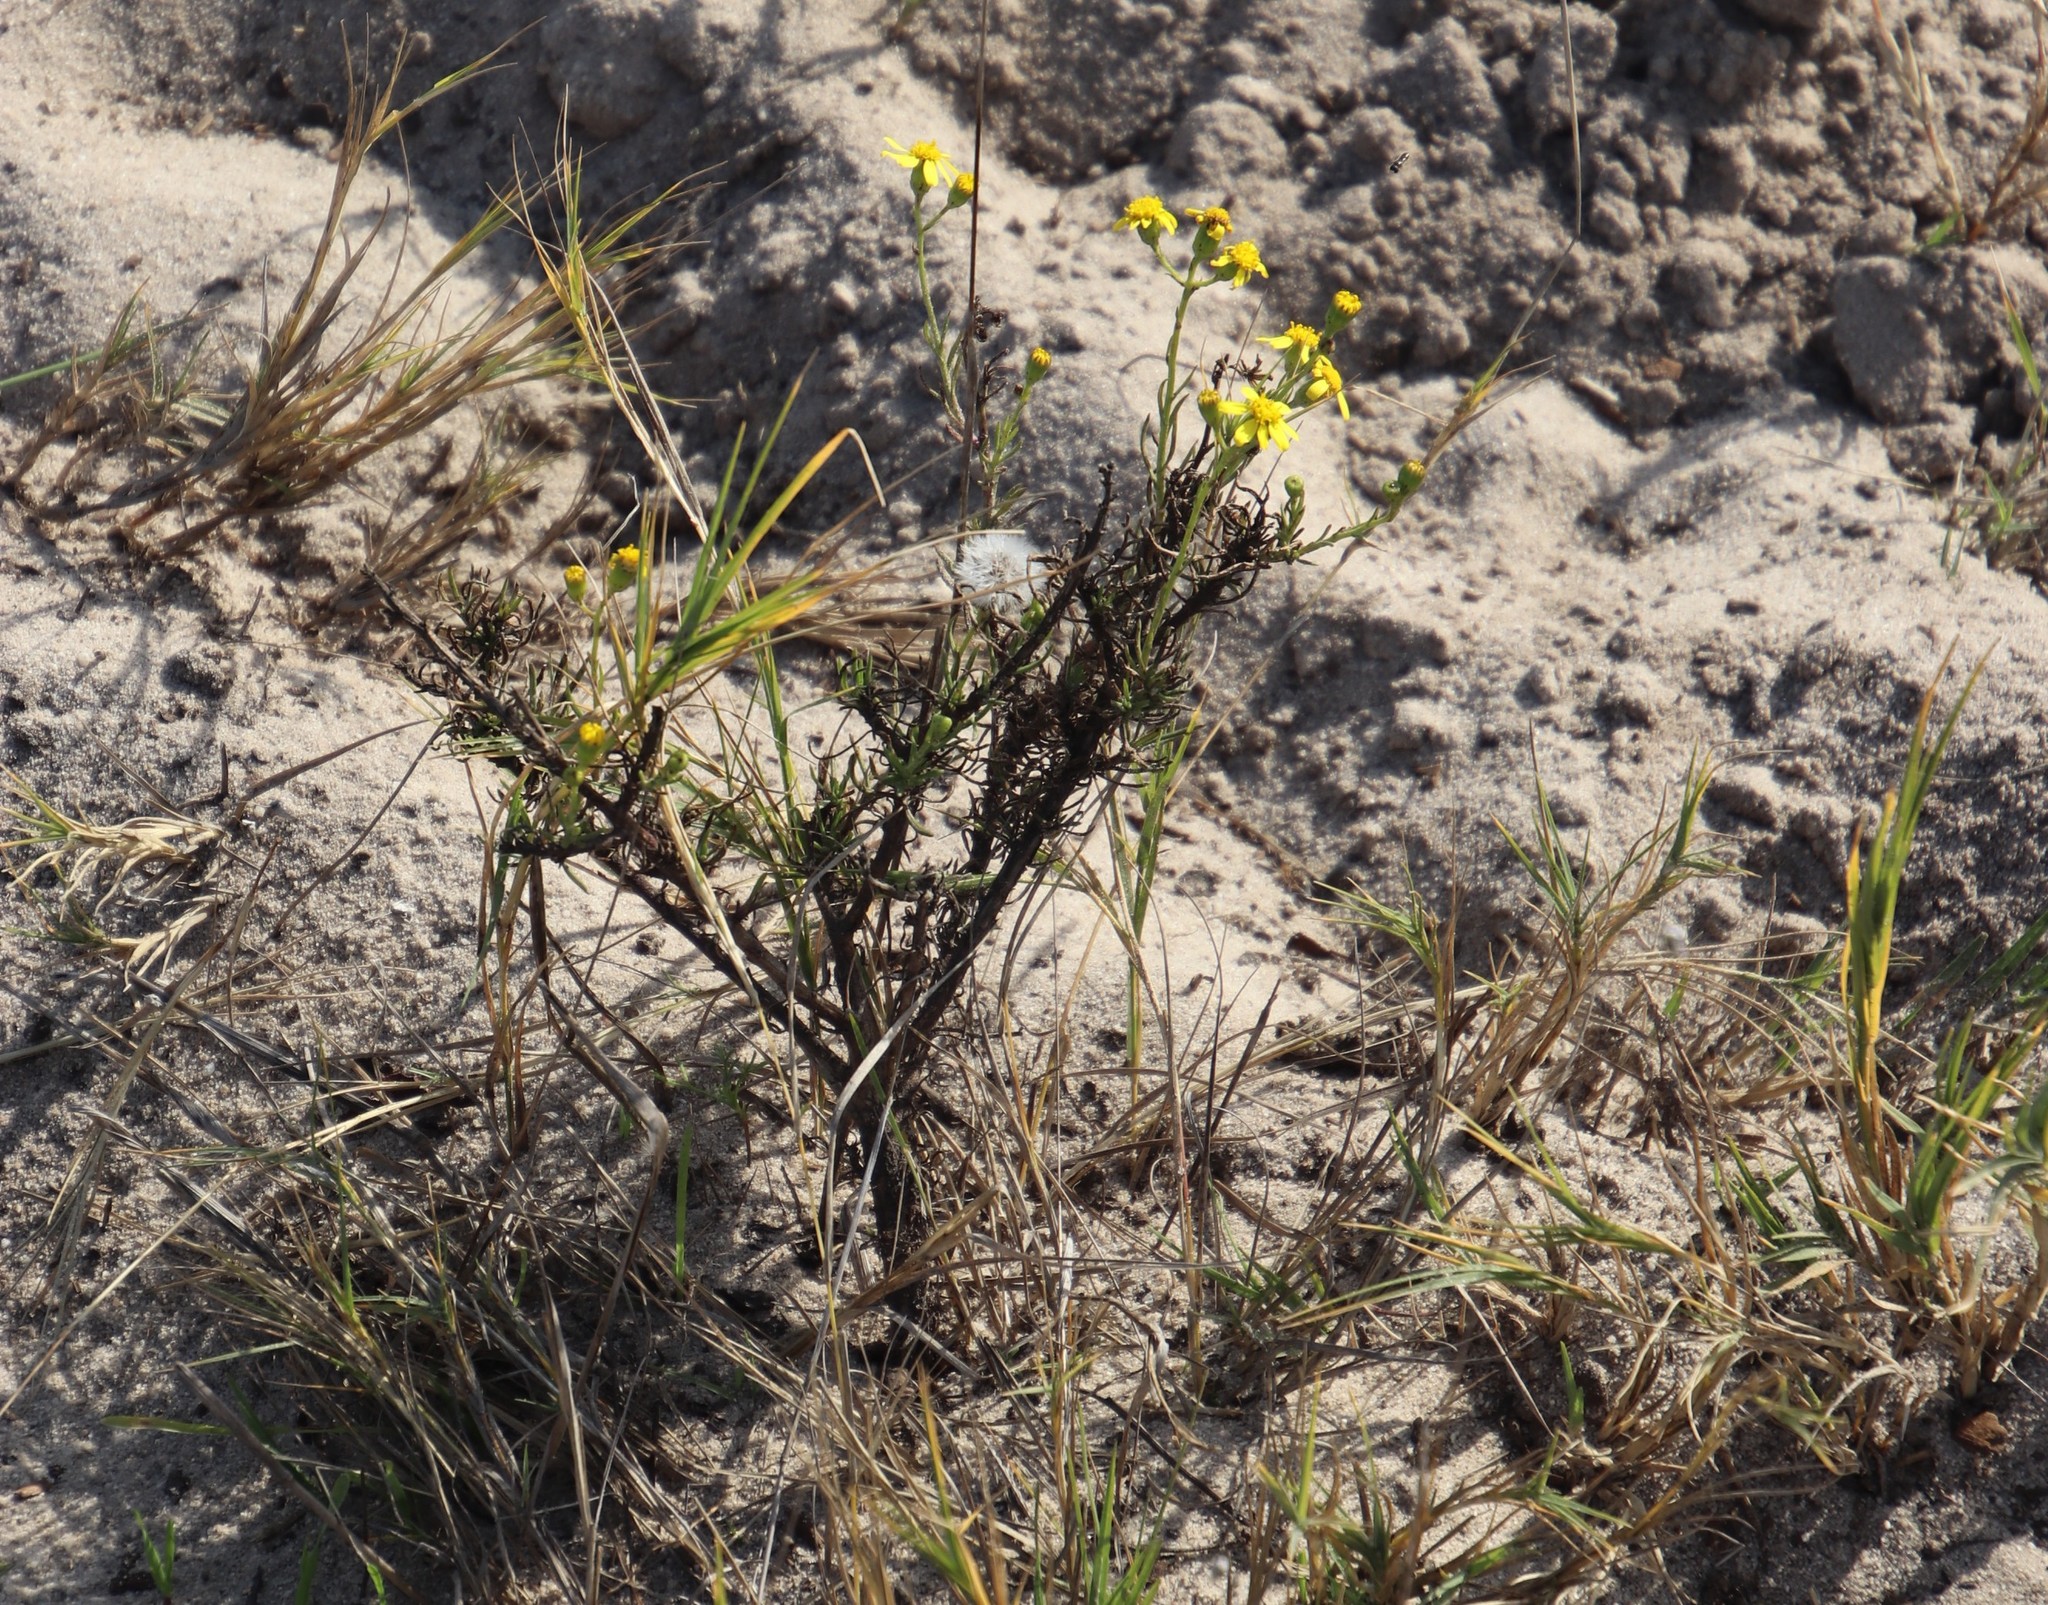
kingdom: Plantae
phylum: Tracheophyta
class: Magnoliopsida
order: Asterales
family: Asteraceae
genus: Senecio
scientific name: Senecio burchellii
